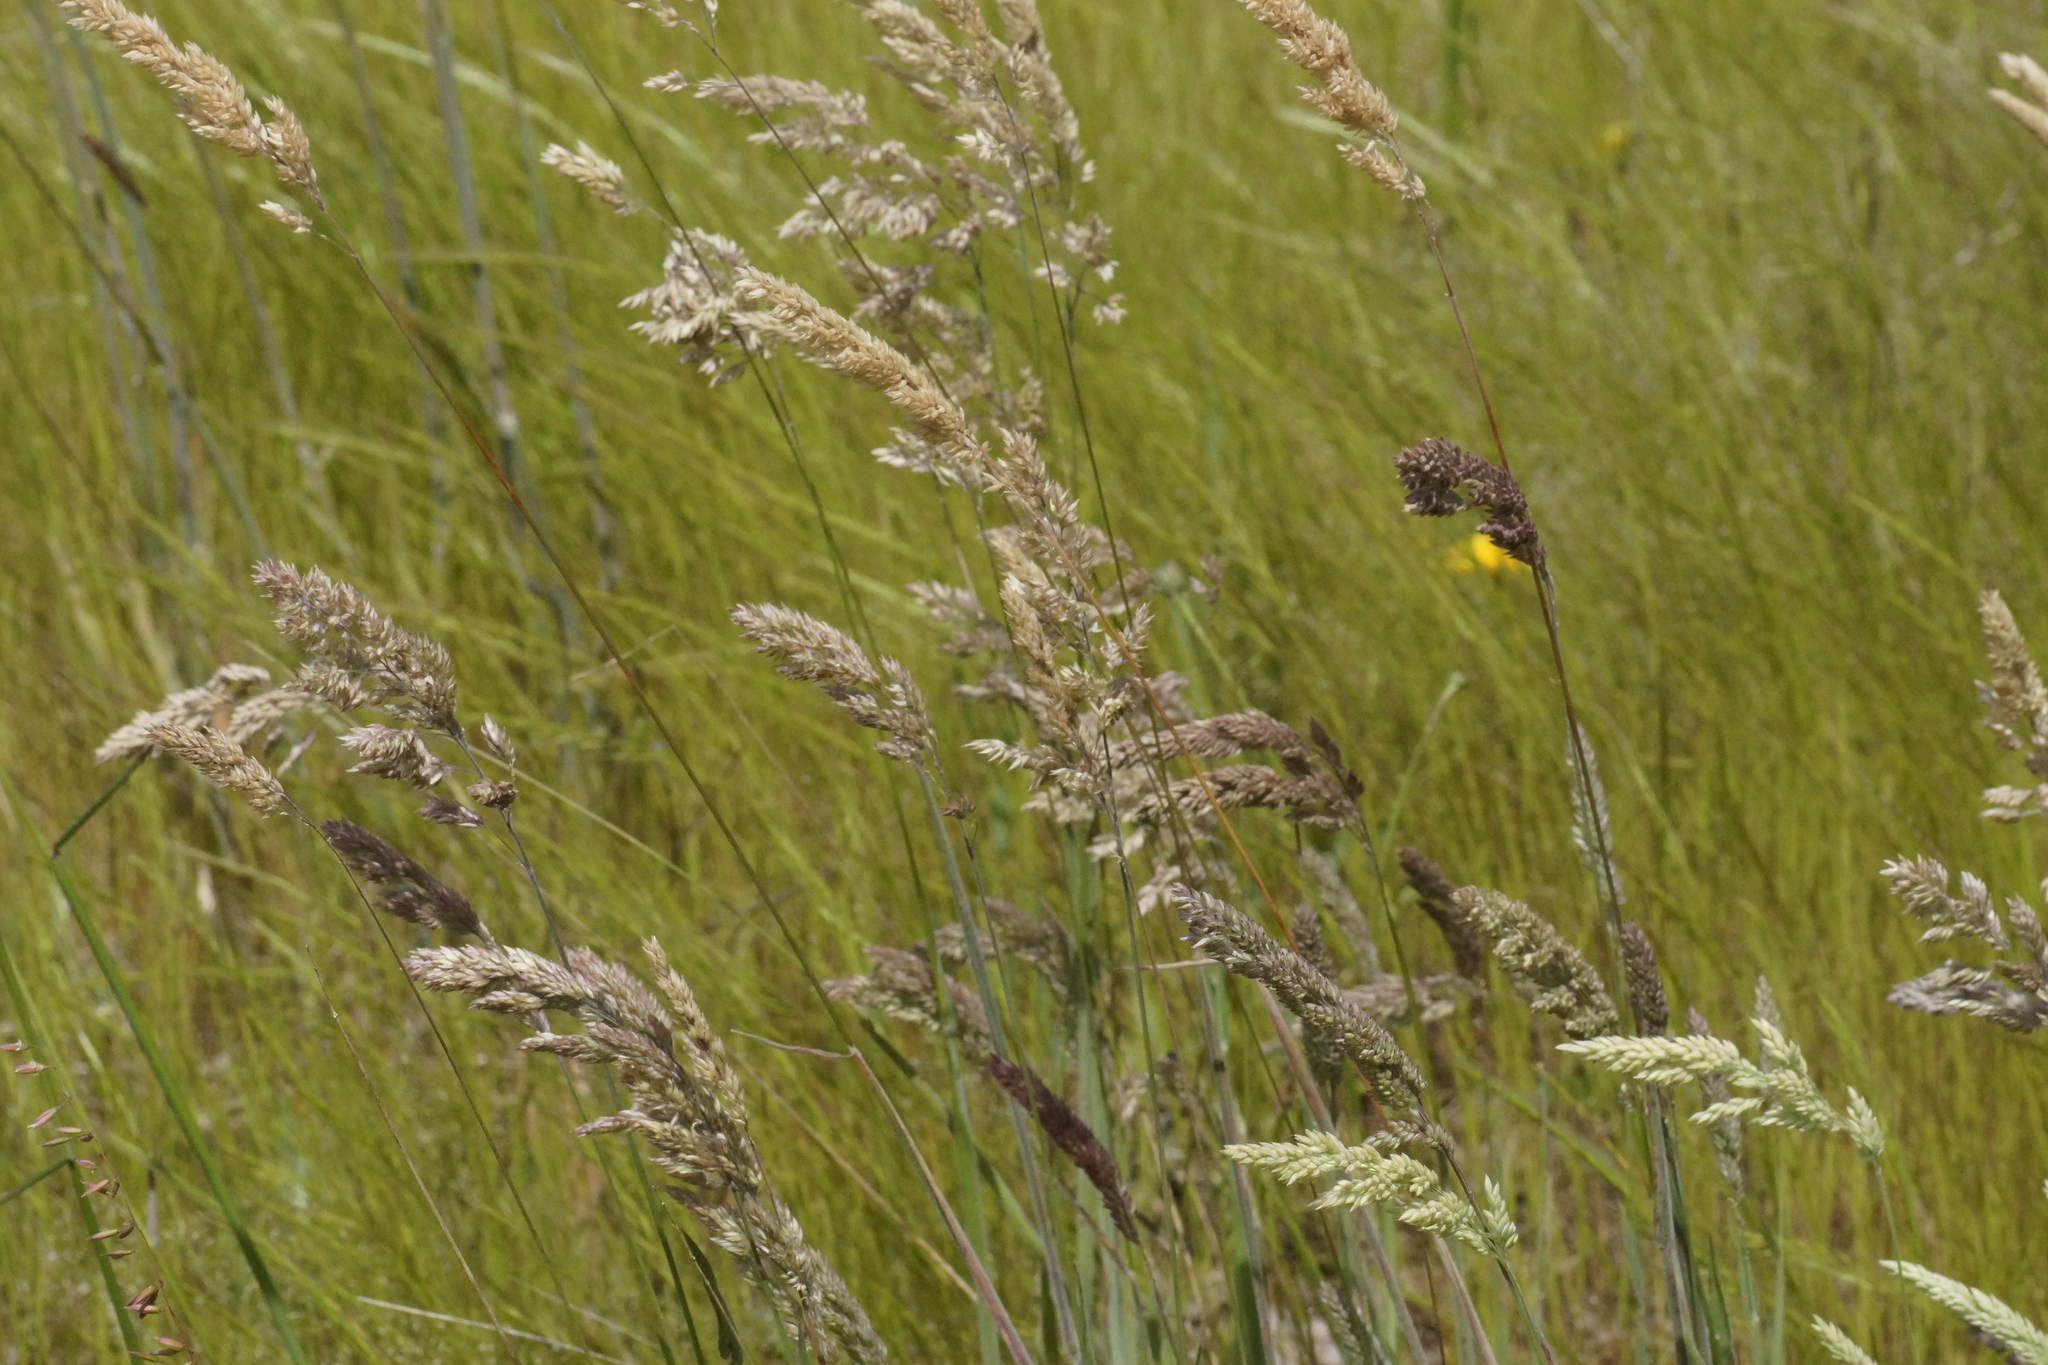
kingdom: Plantae
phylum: Tracheophyta
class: Liliopsida
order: Poales
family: Poaceae
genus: Holcus
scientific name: Holcus lanatus
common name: Yorkshire-fog
